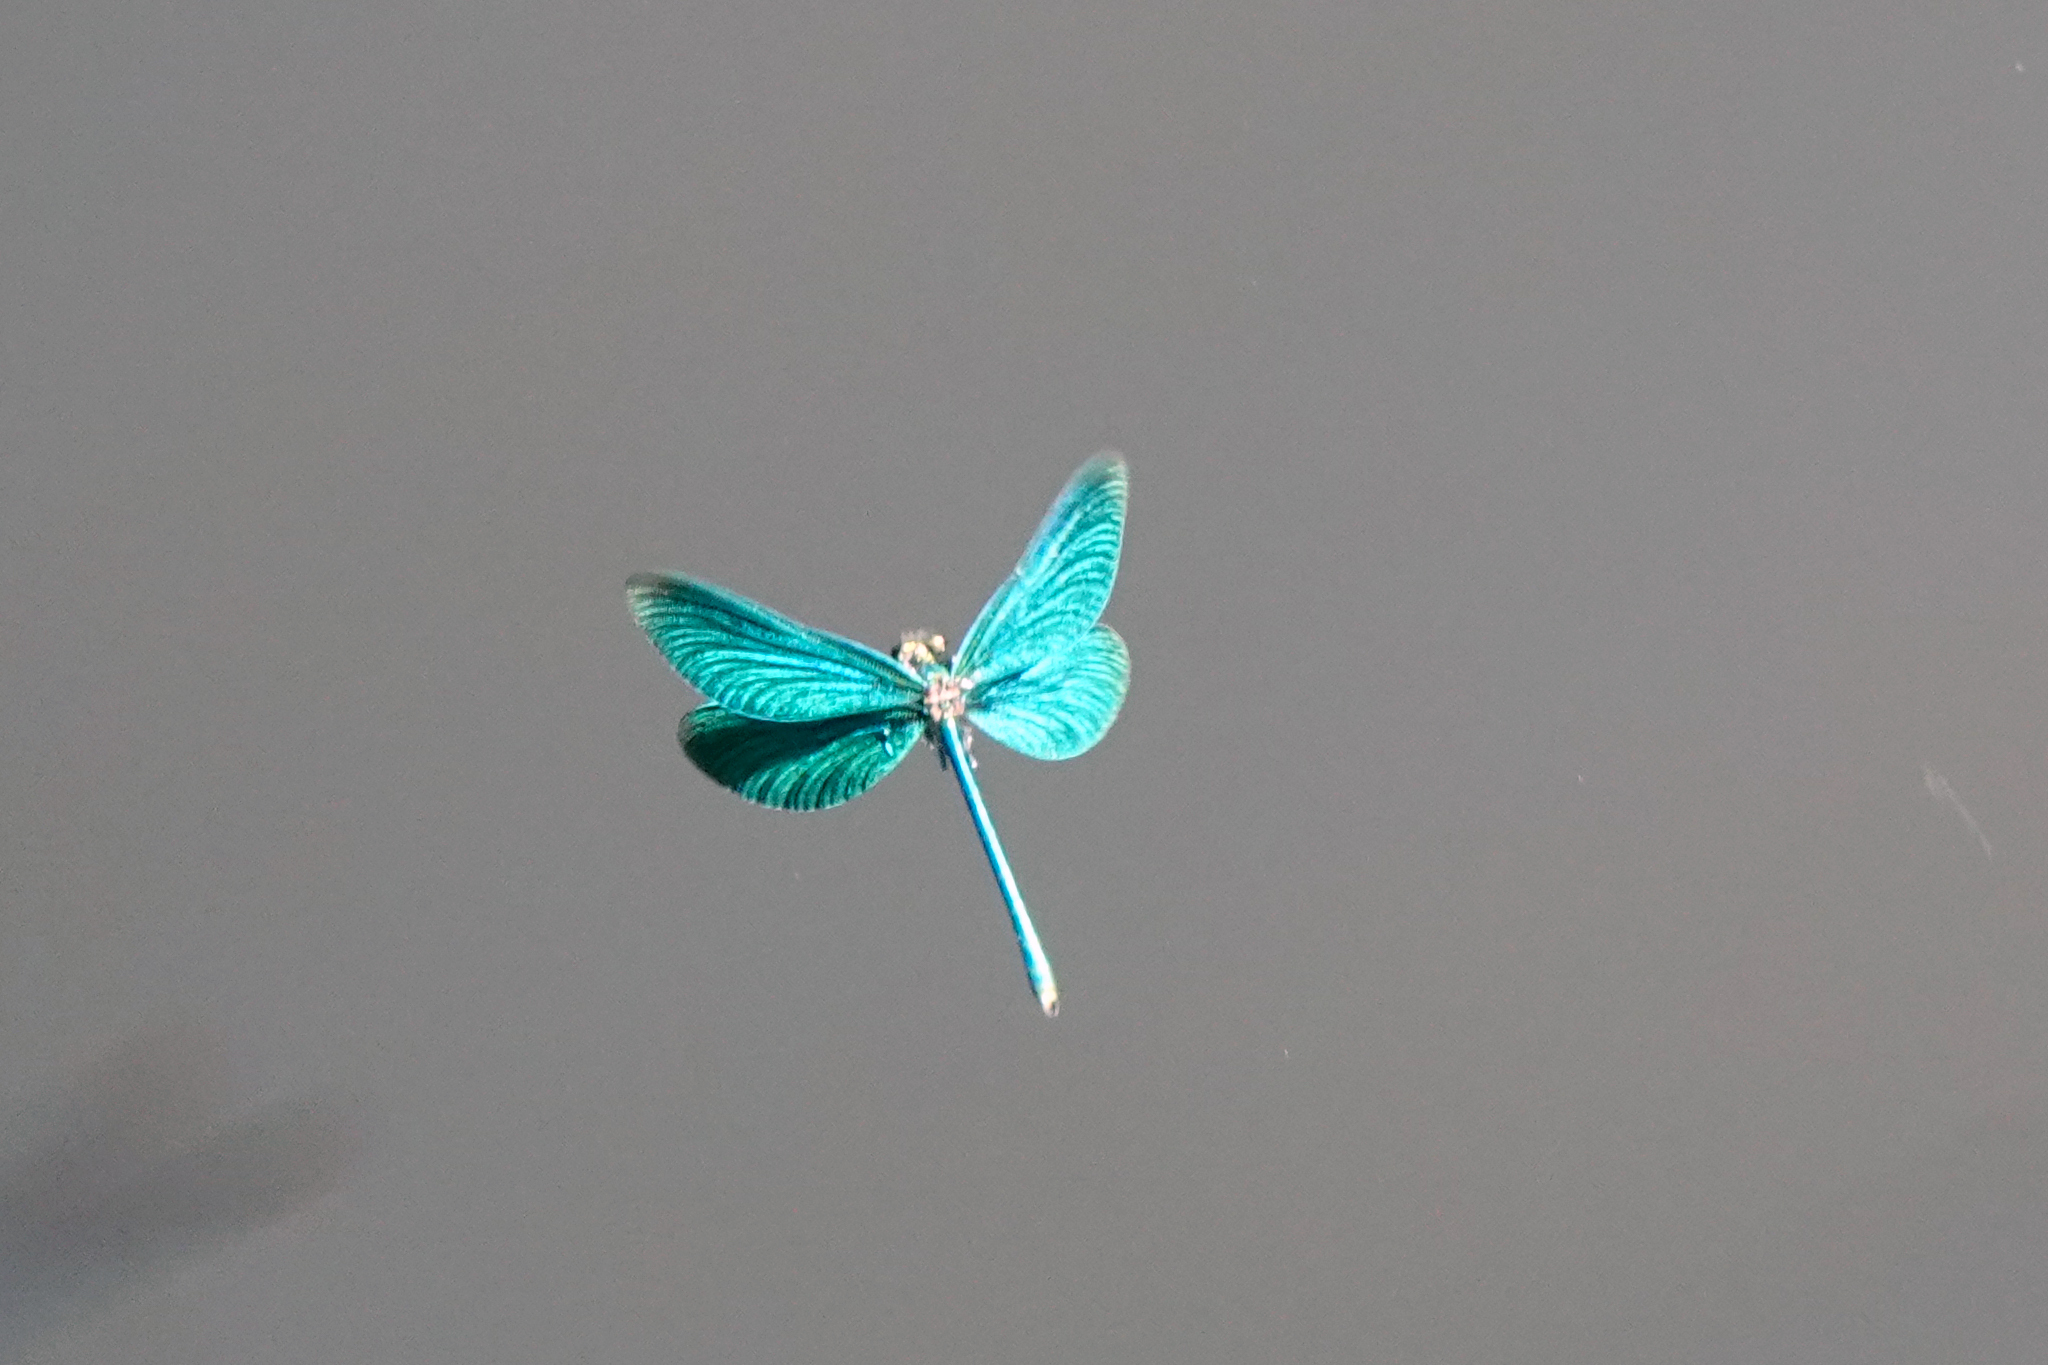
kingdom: Animalia
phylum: Arthropoda
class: Insecta
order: Odonata
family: Calopterygidae
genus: Calopteryx
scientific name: Calopteryx virgo
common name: Beautiful demoiselle
